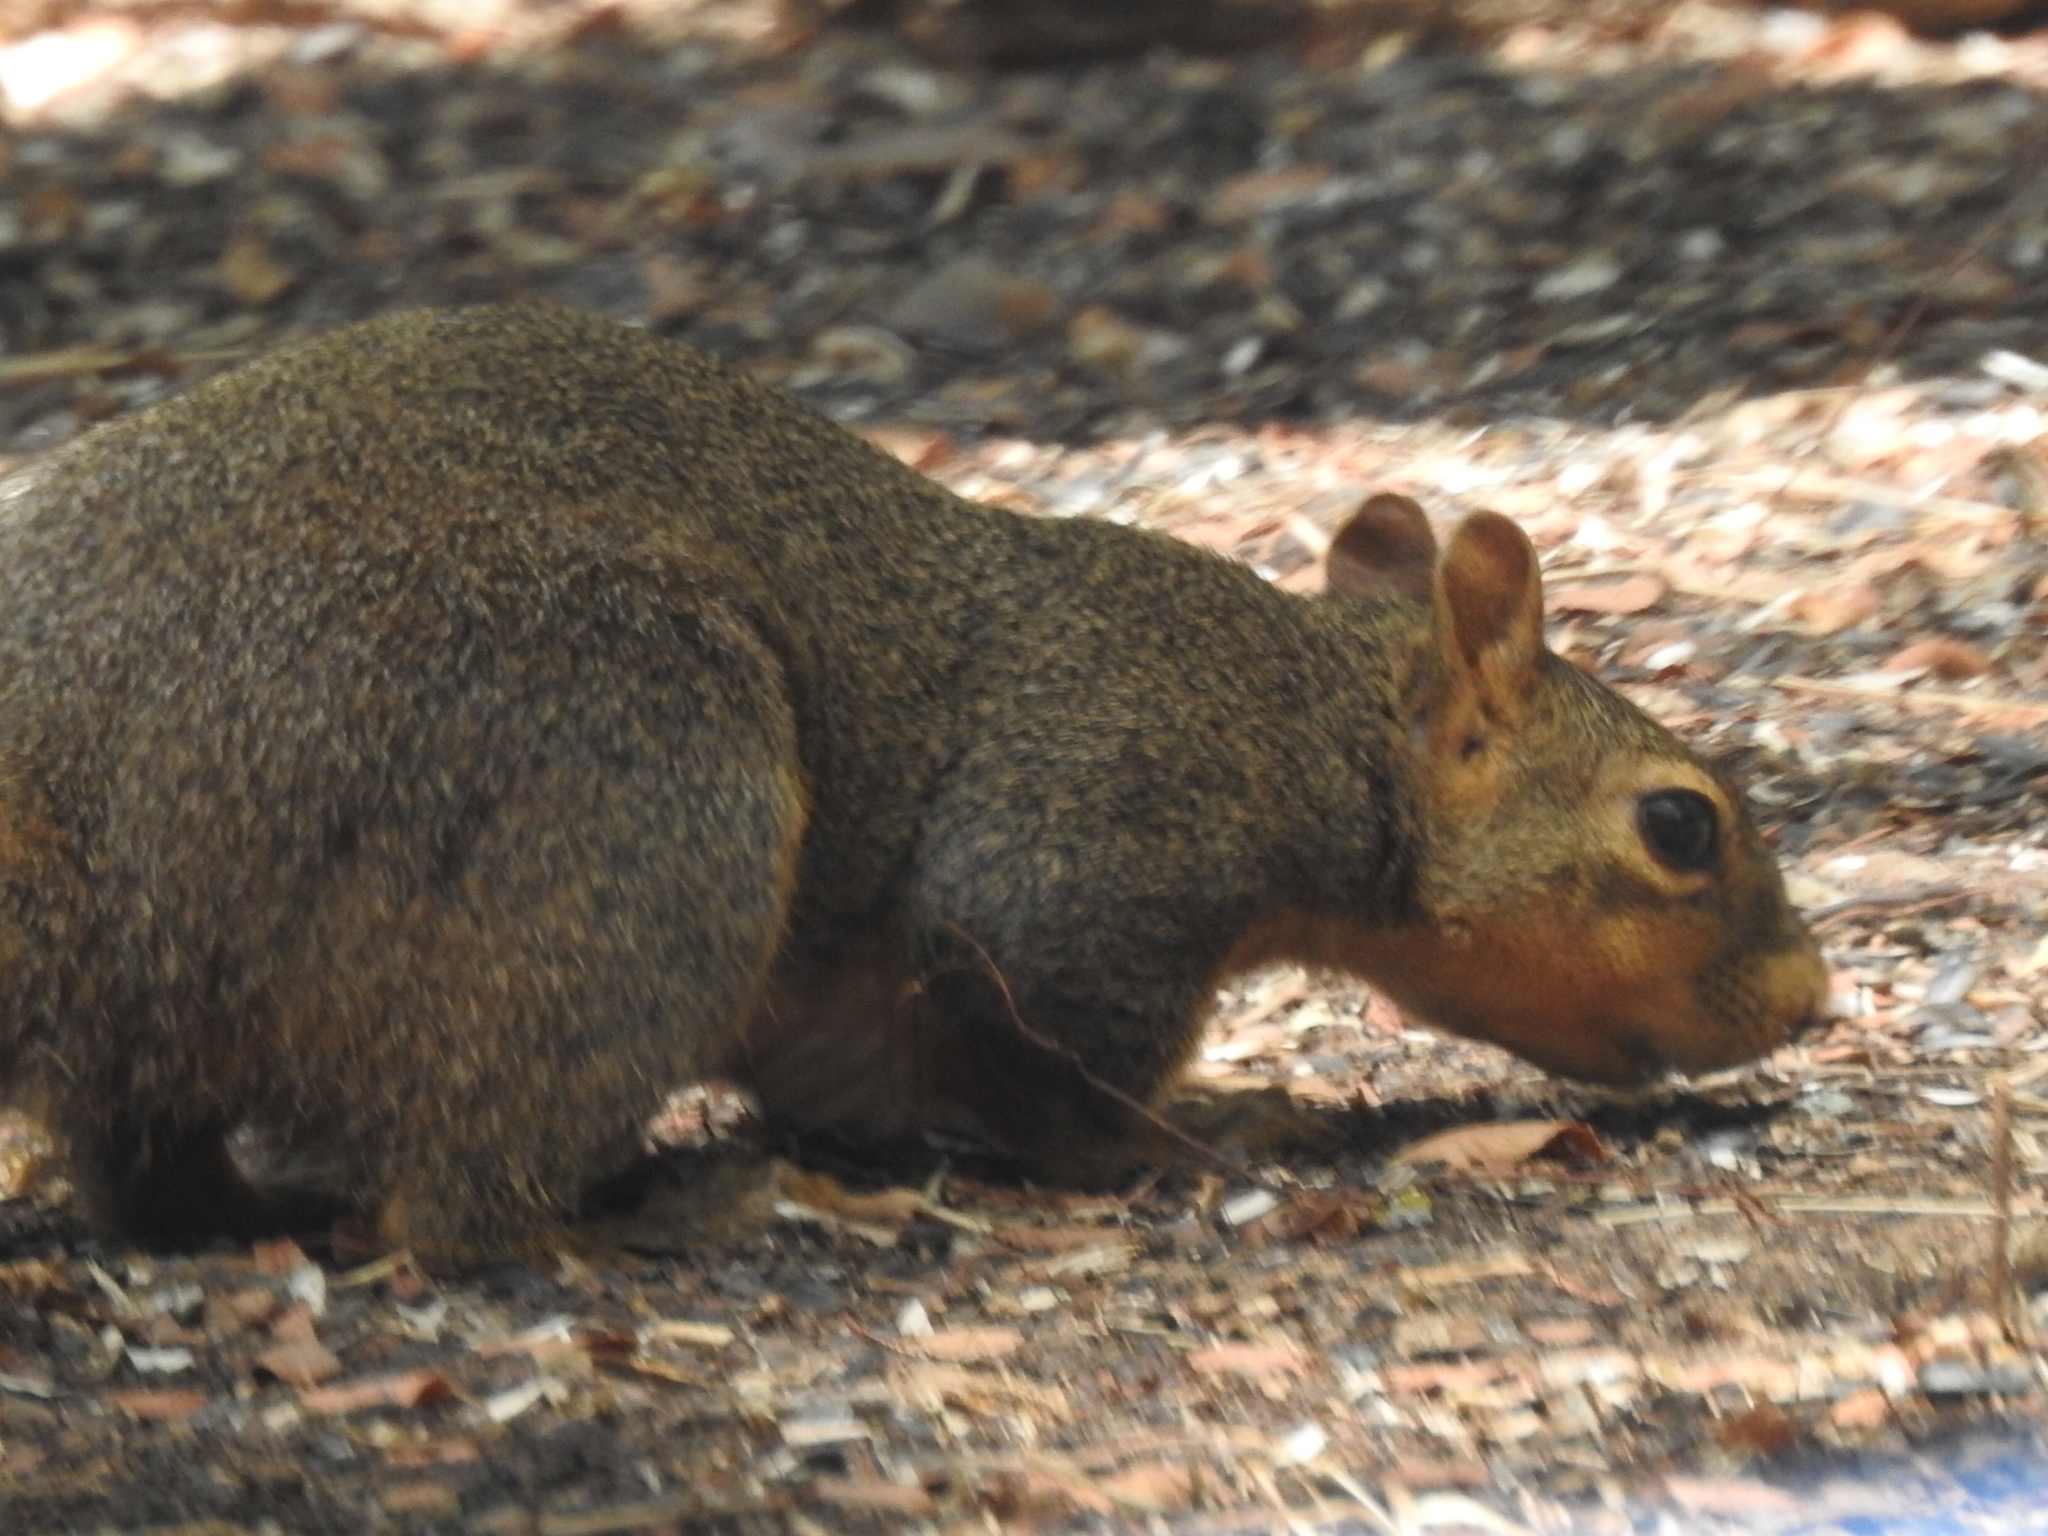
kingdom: Animalia
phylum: Chordata
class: Mammalia
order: Rodentia
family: Sciuridae
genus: Sciurus
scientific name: Sciurus niger
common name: Fox squirrel
